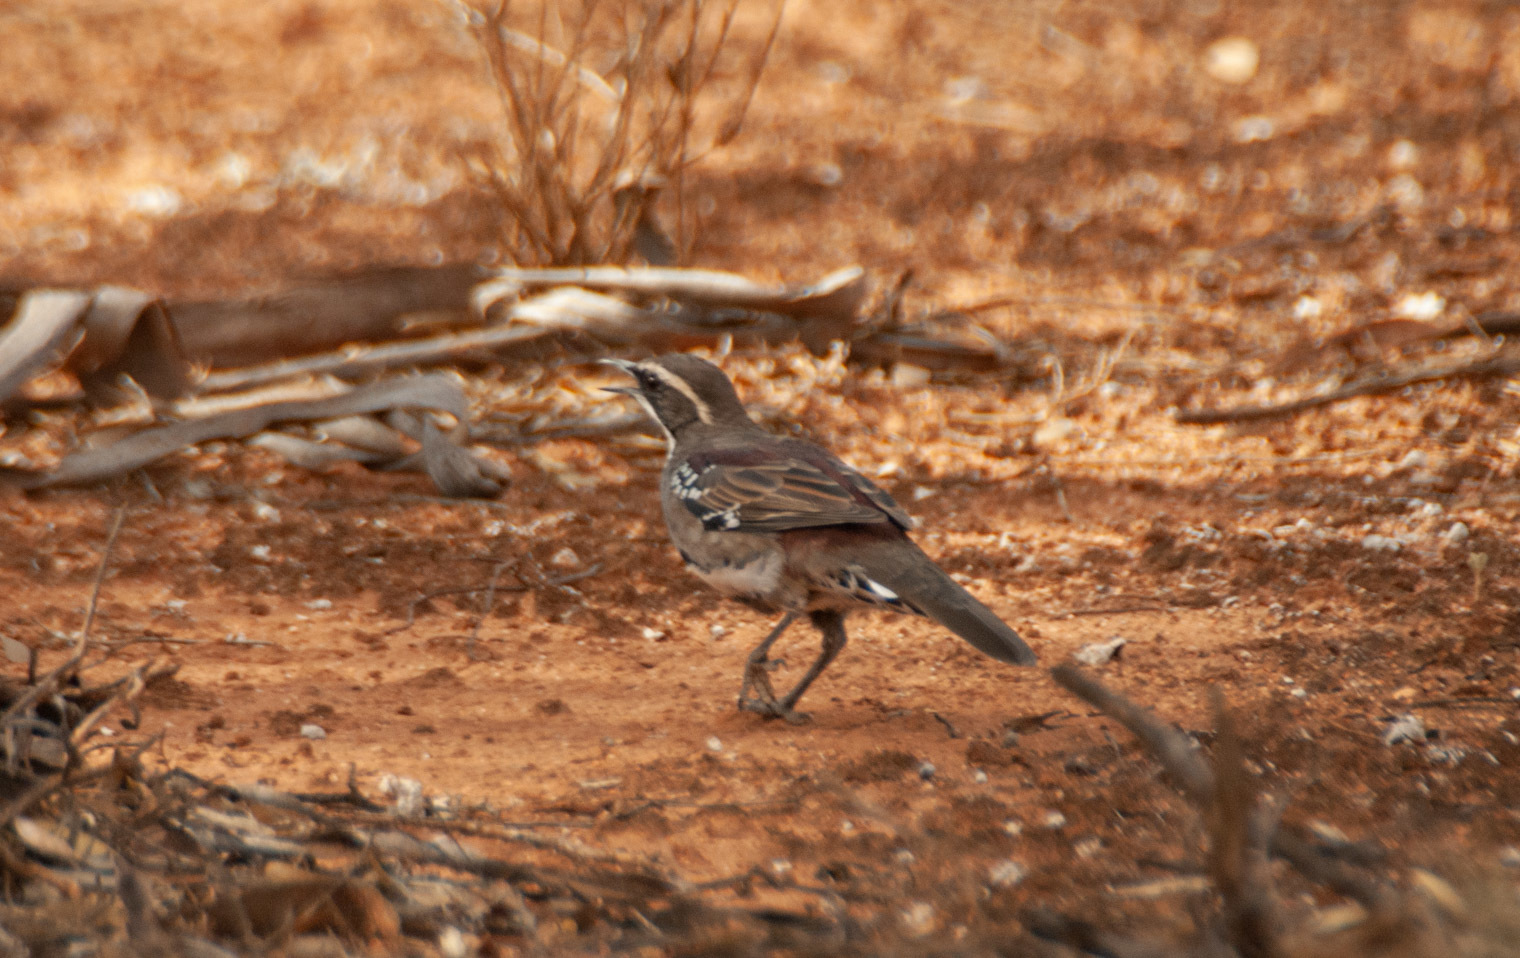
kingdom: Animalia
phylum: Chordata
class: Aves
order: Passeriformes
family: Psophodidae
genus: Cinclosoma
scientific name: Cinclosoma castanotum
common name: Chestnut quail-thrush
